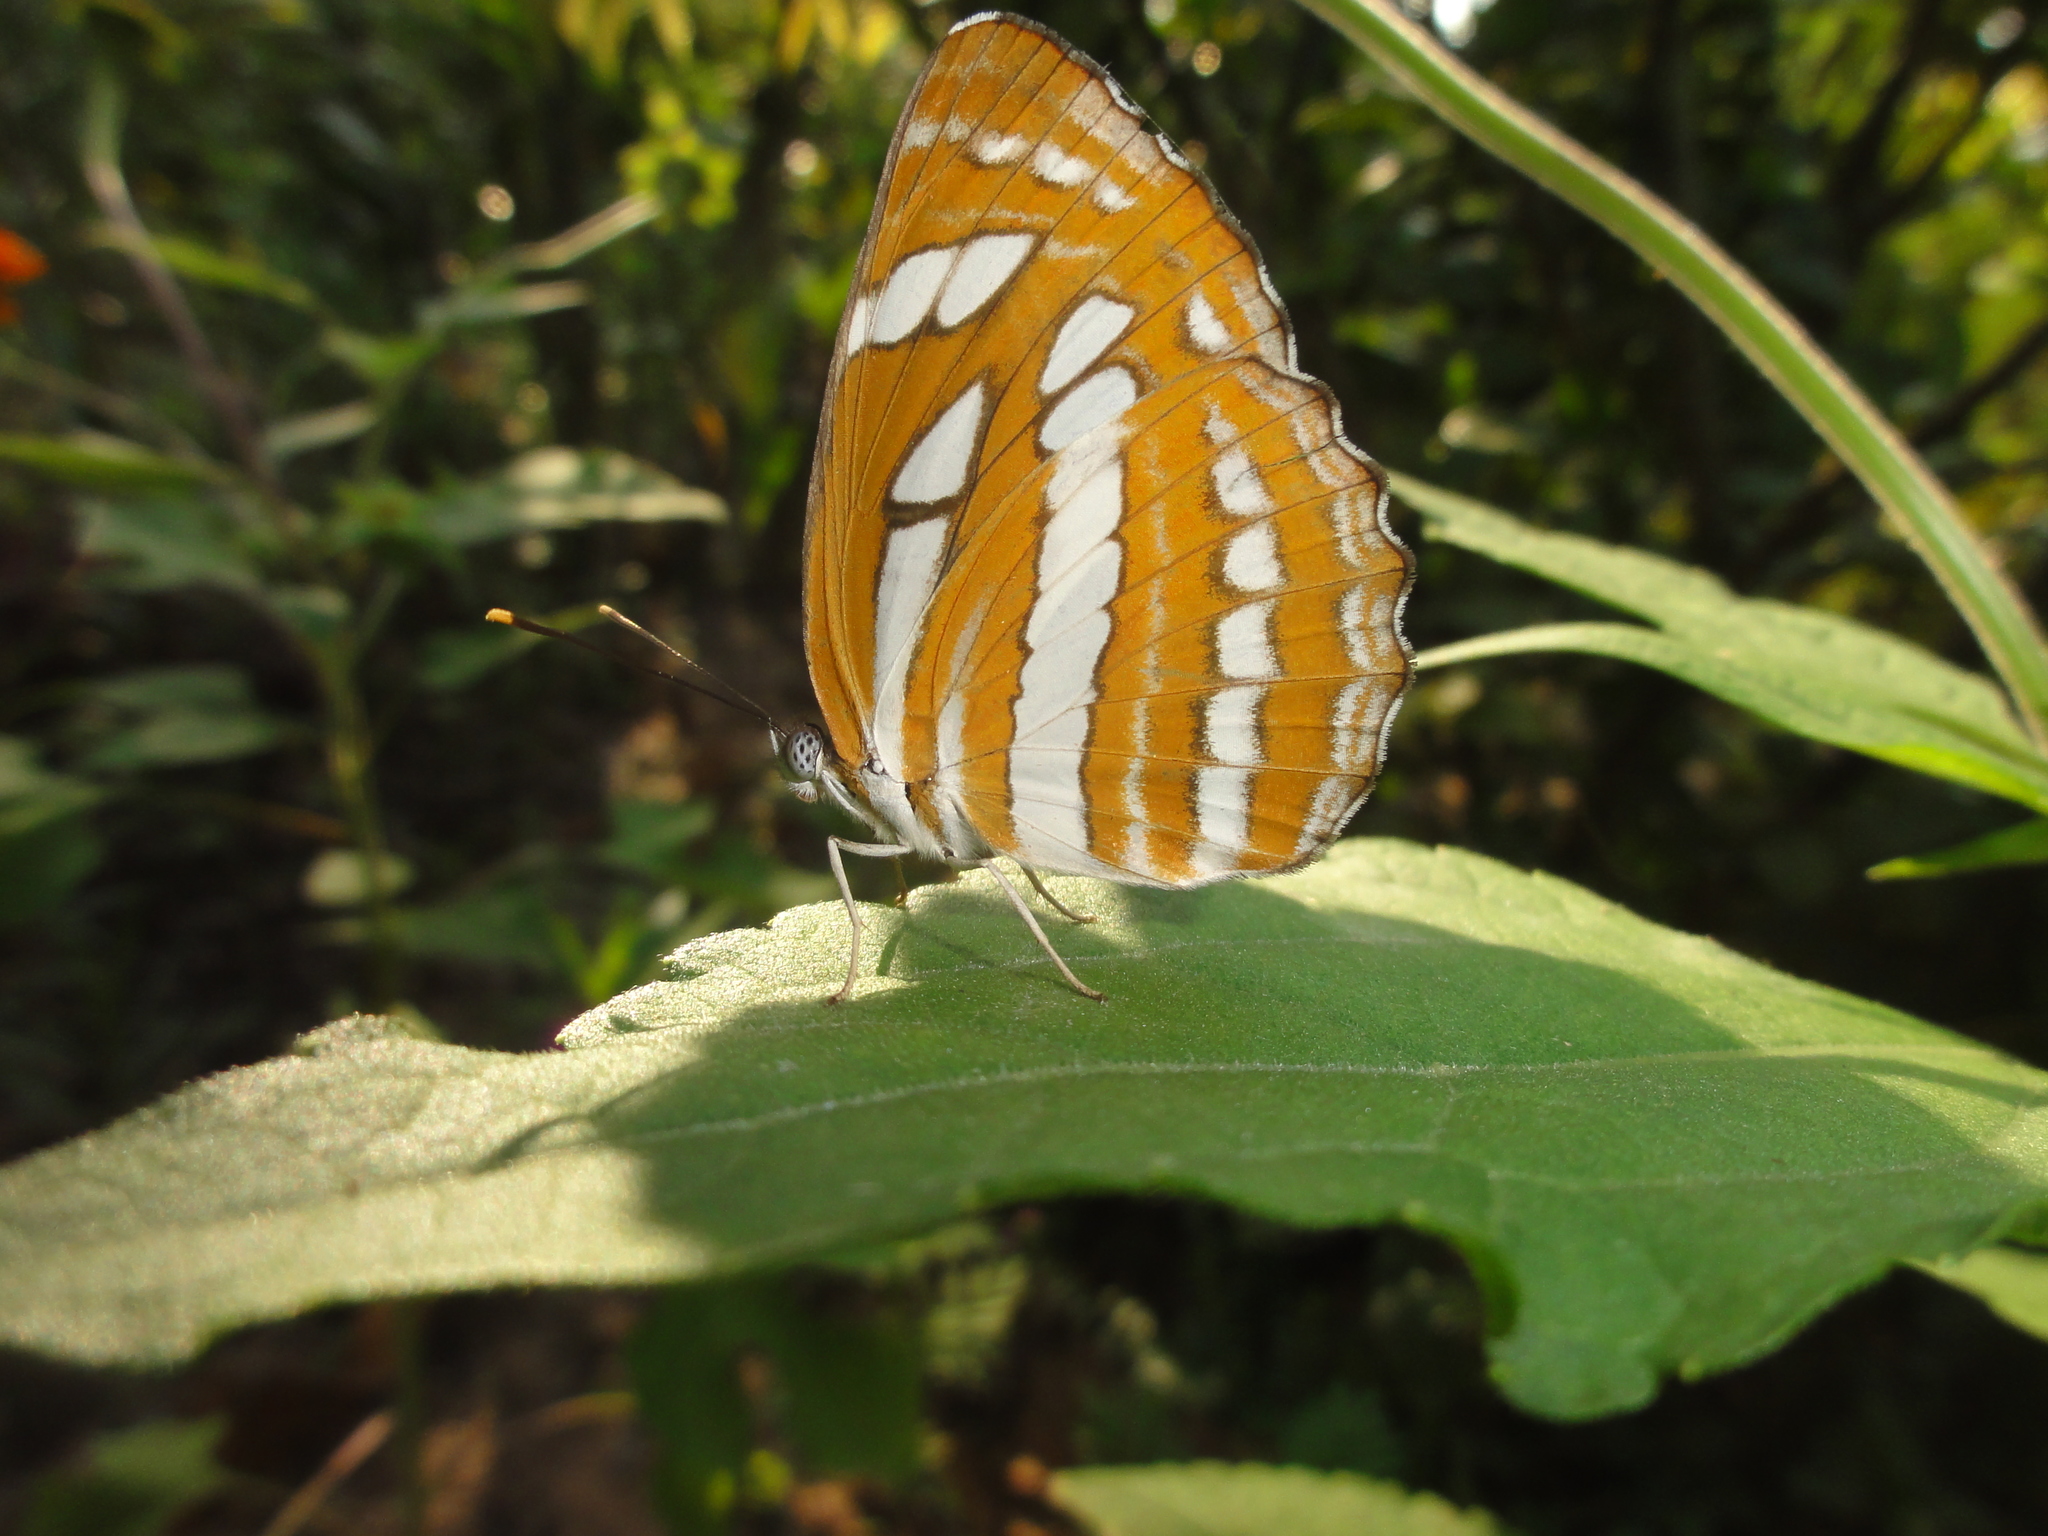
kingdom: Animalia
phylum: Arthropoda
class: Insecta
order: Lepidoptera
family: Nymphalidae
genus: Neptis
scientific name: Neptis hylas
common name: Common sailer
